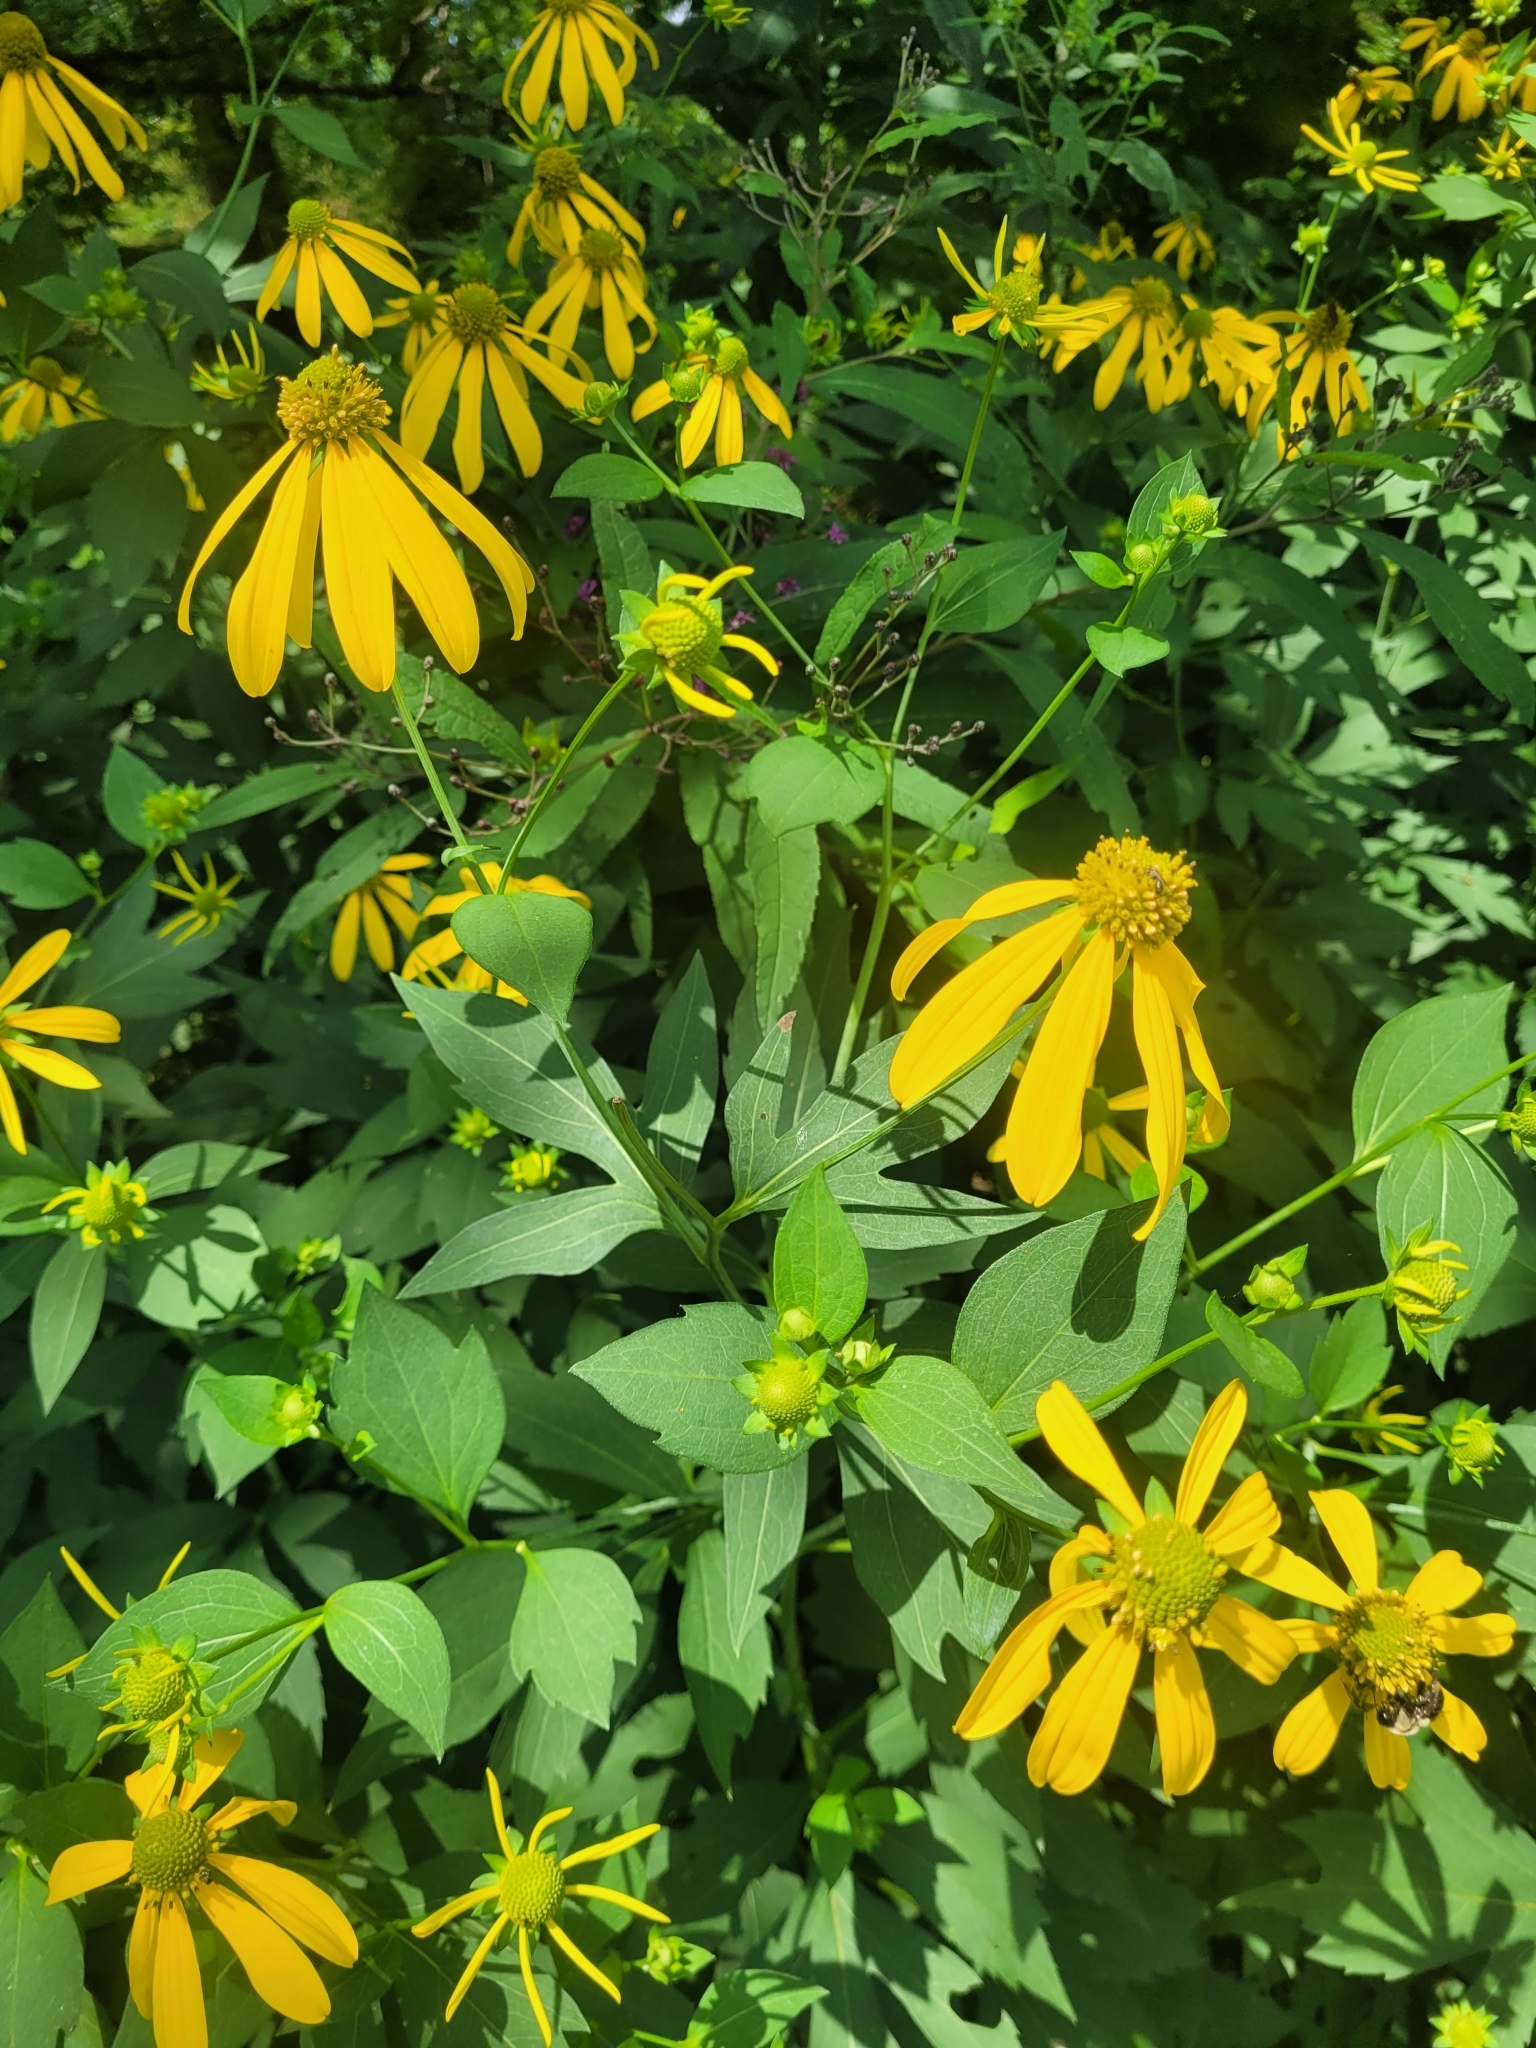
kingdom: Plantae
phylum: Tracheophyta
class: Magnoliopsida
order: Asterales
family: Asteraceae
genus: Rudbeckia
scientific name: Rudbeckia laciniata
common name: Coneflower
